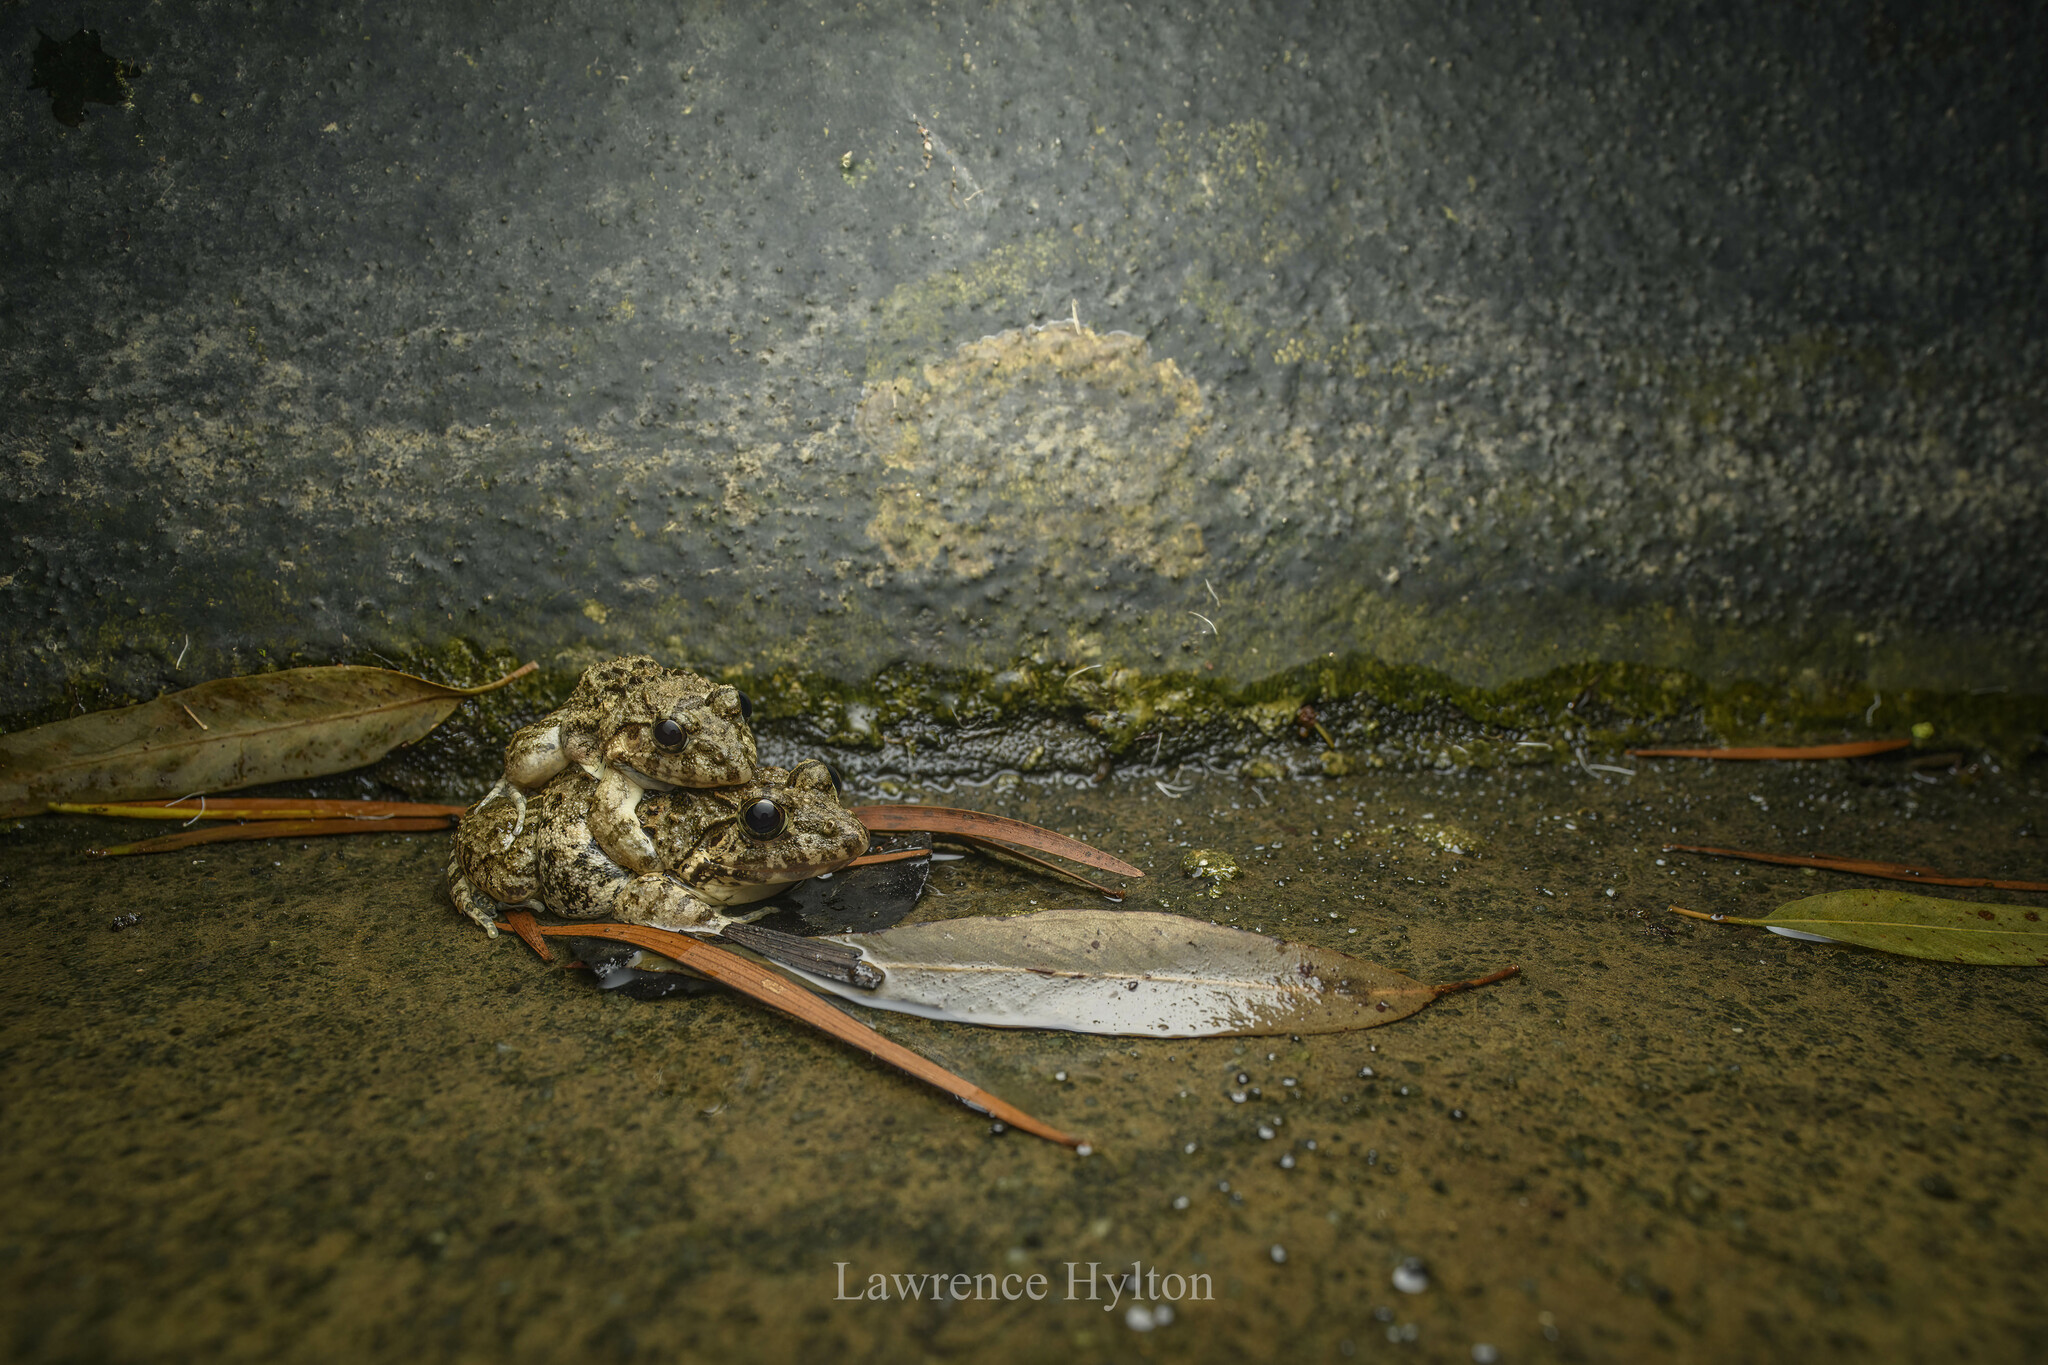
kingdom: Animalia
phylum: Chordata
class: Amphibia
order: Anura
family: Dicroglossidae
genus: Fejervarya
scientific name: Fejervarya multistriata
